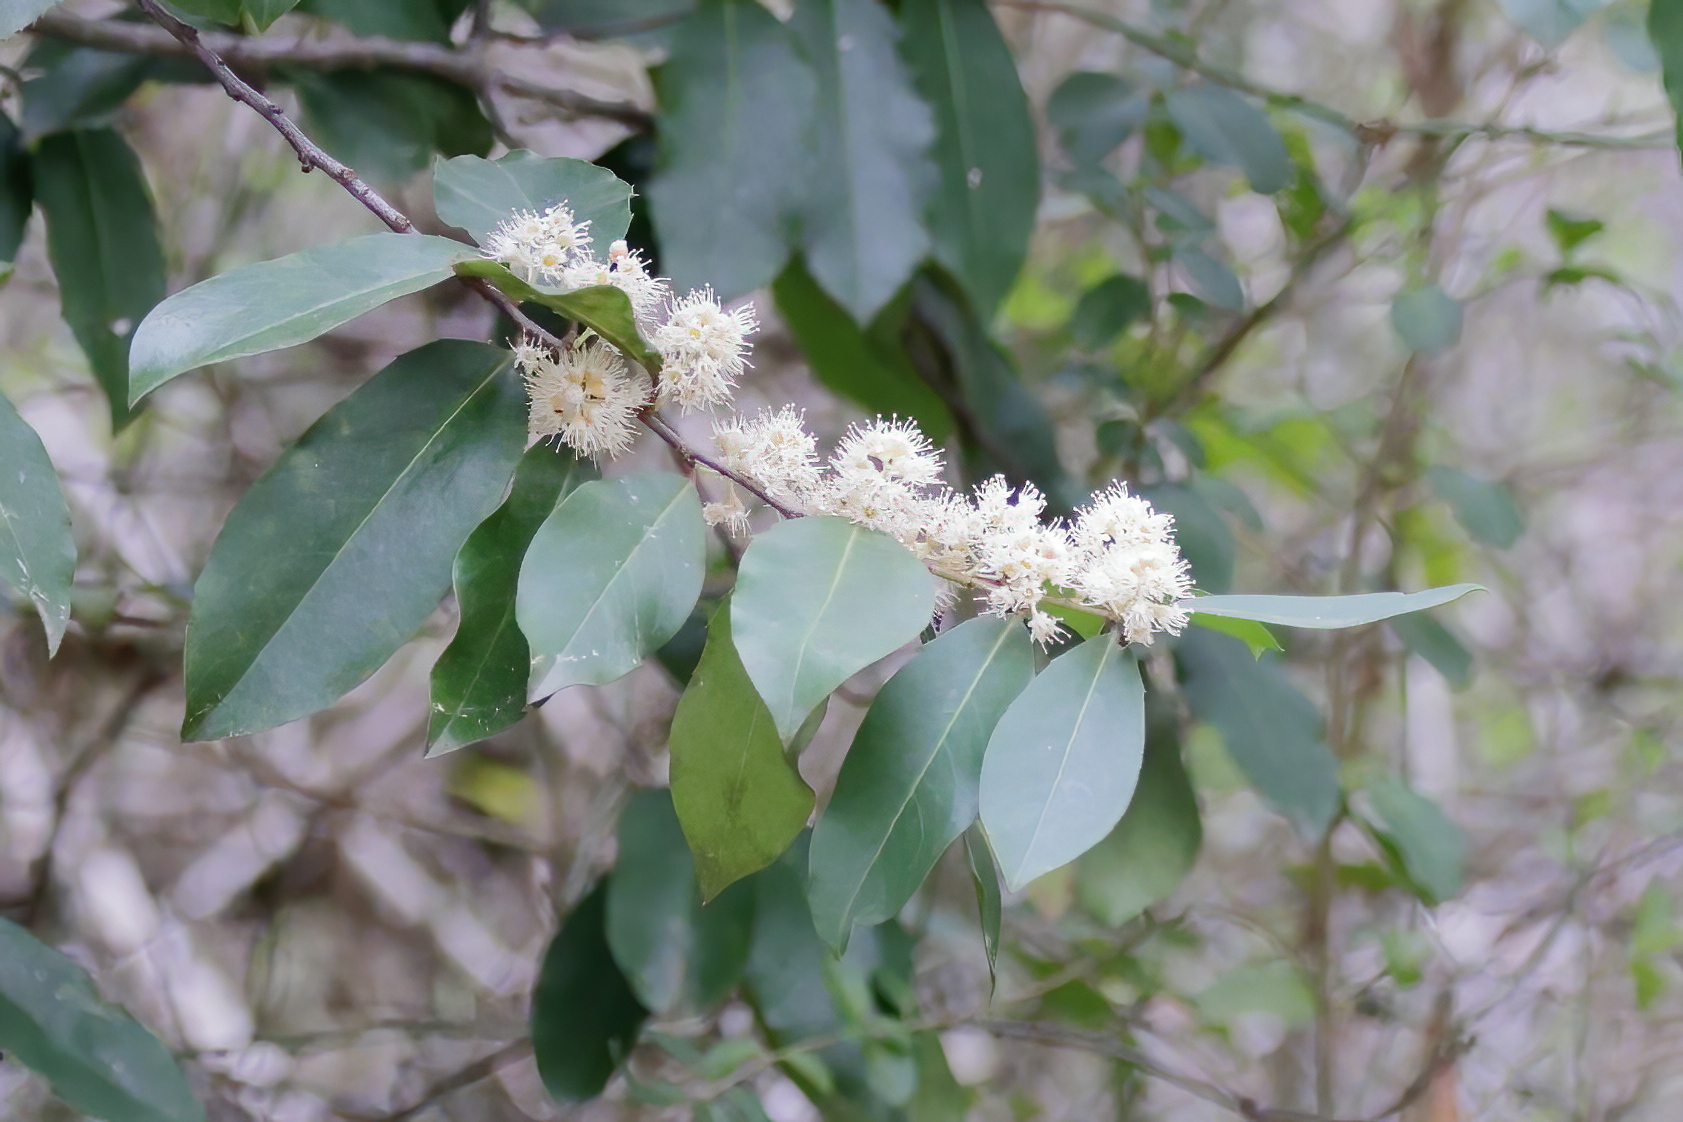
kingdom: Plantae
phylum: Tracheophyta
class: Magnoliopsida
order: Rosales
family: Rosaceae
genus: Prunus
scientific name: Prunus caroliniana
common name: Carolina laurel cherry
